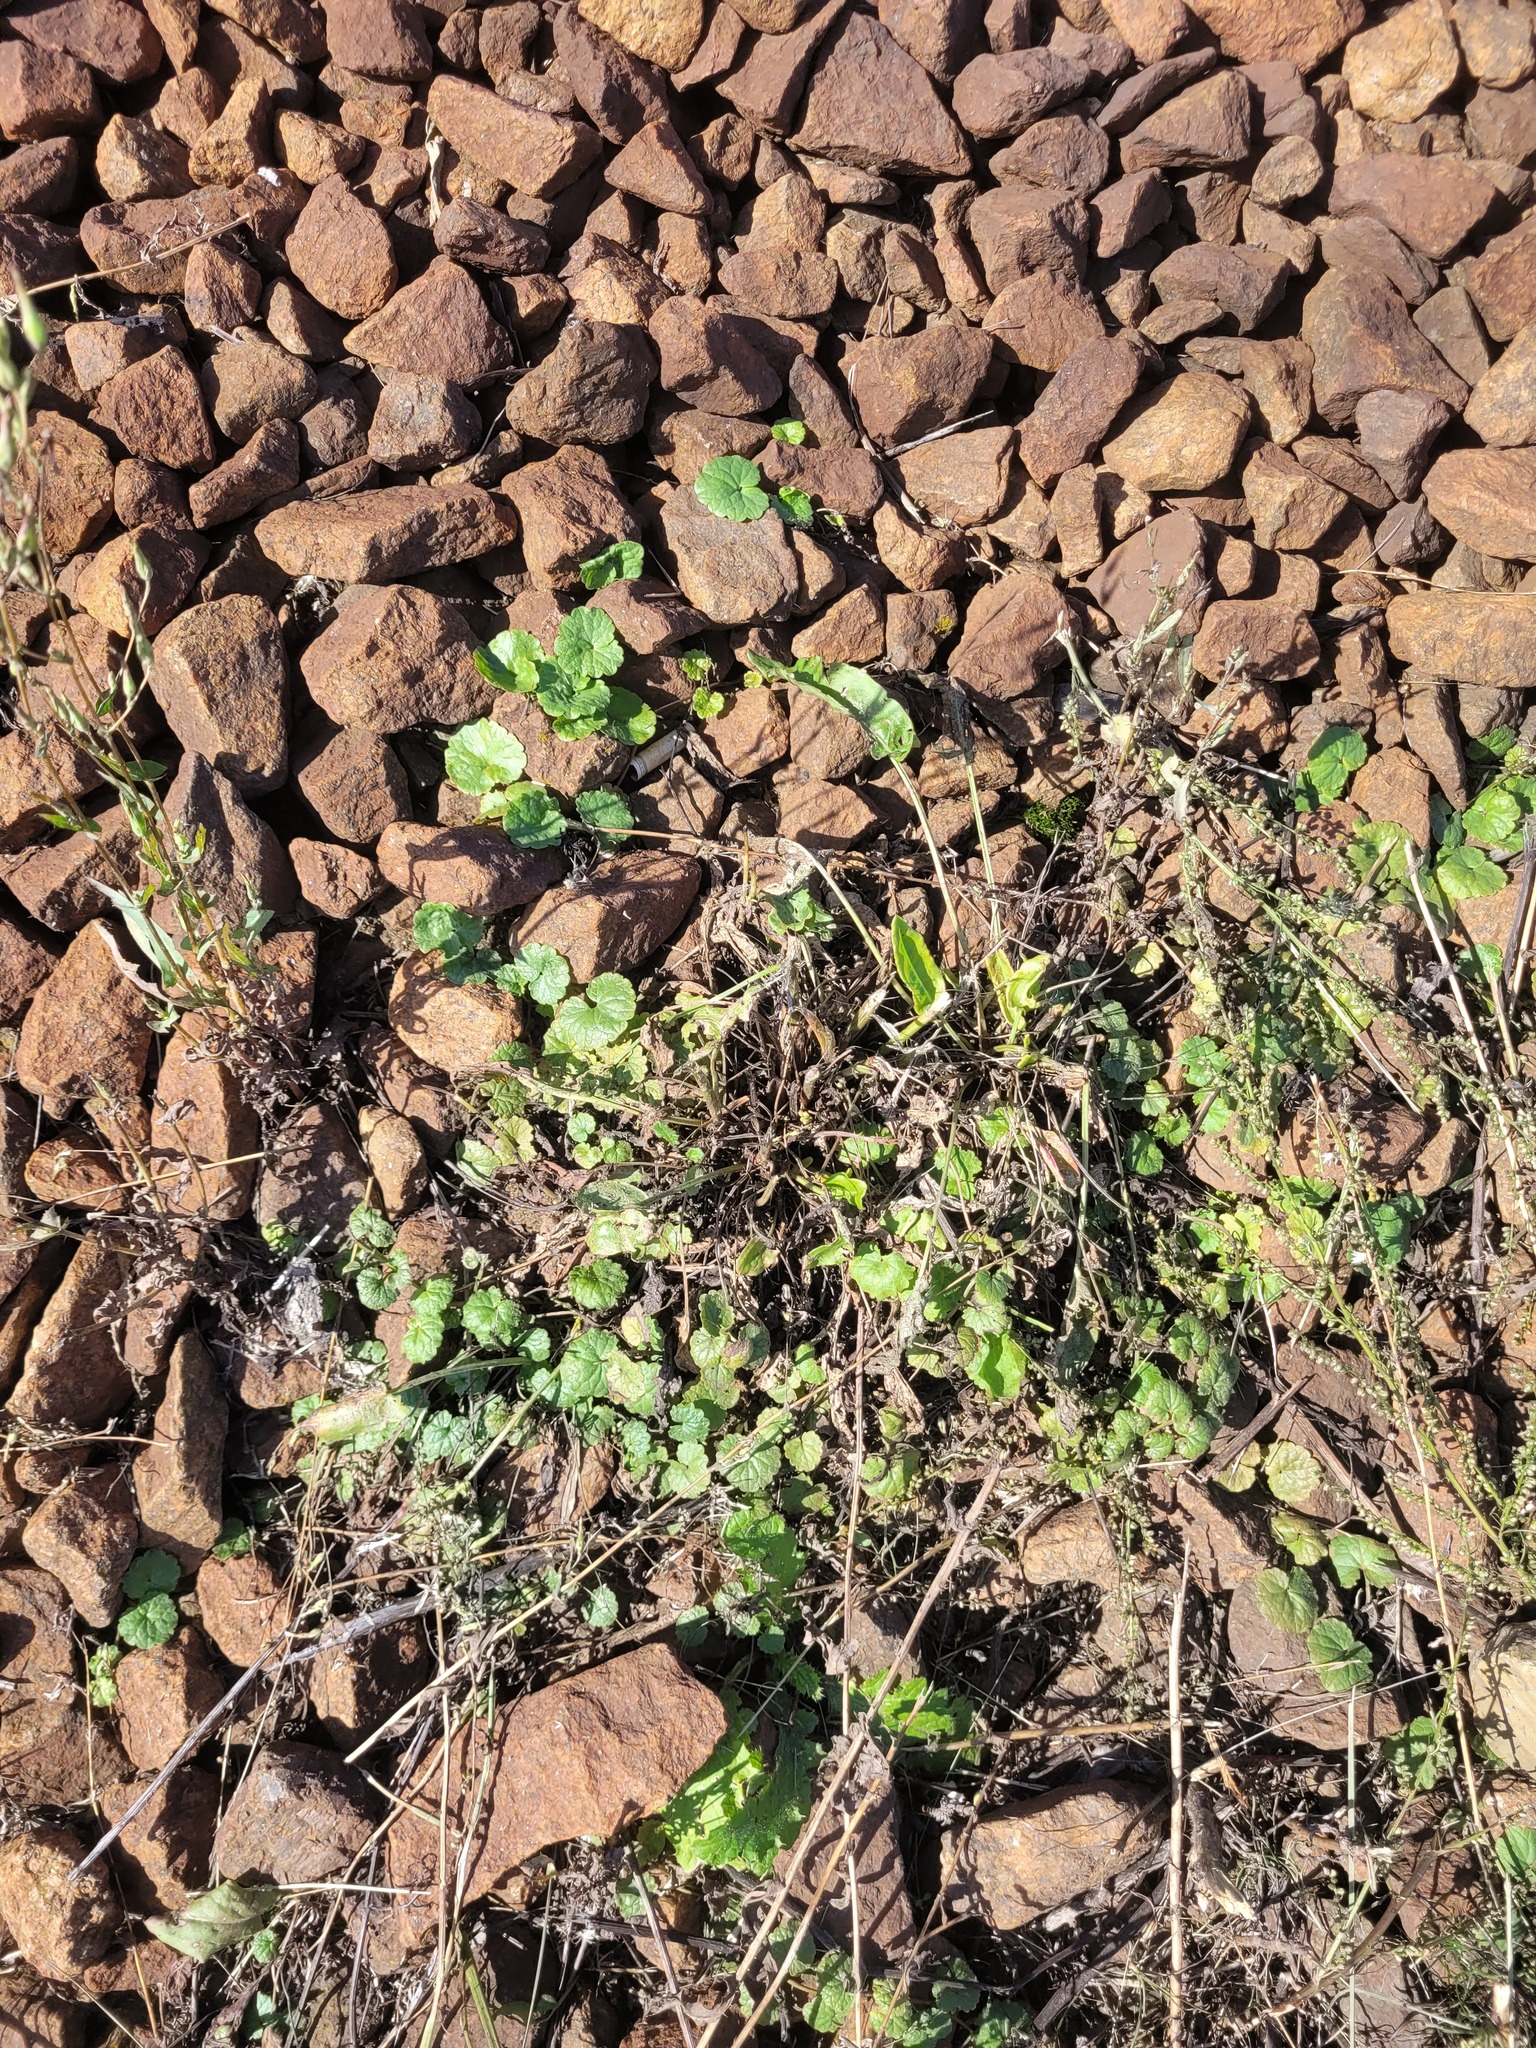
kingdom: Plantae
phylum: Tracheophyta
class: Magnoliopsida
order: Lamiales
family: Lamiaceae
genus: Glechoma
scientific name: Glechoma hederacea
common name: Ground ivy
